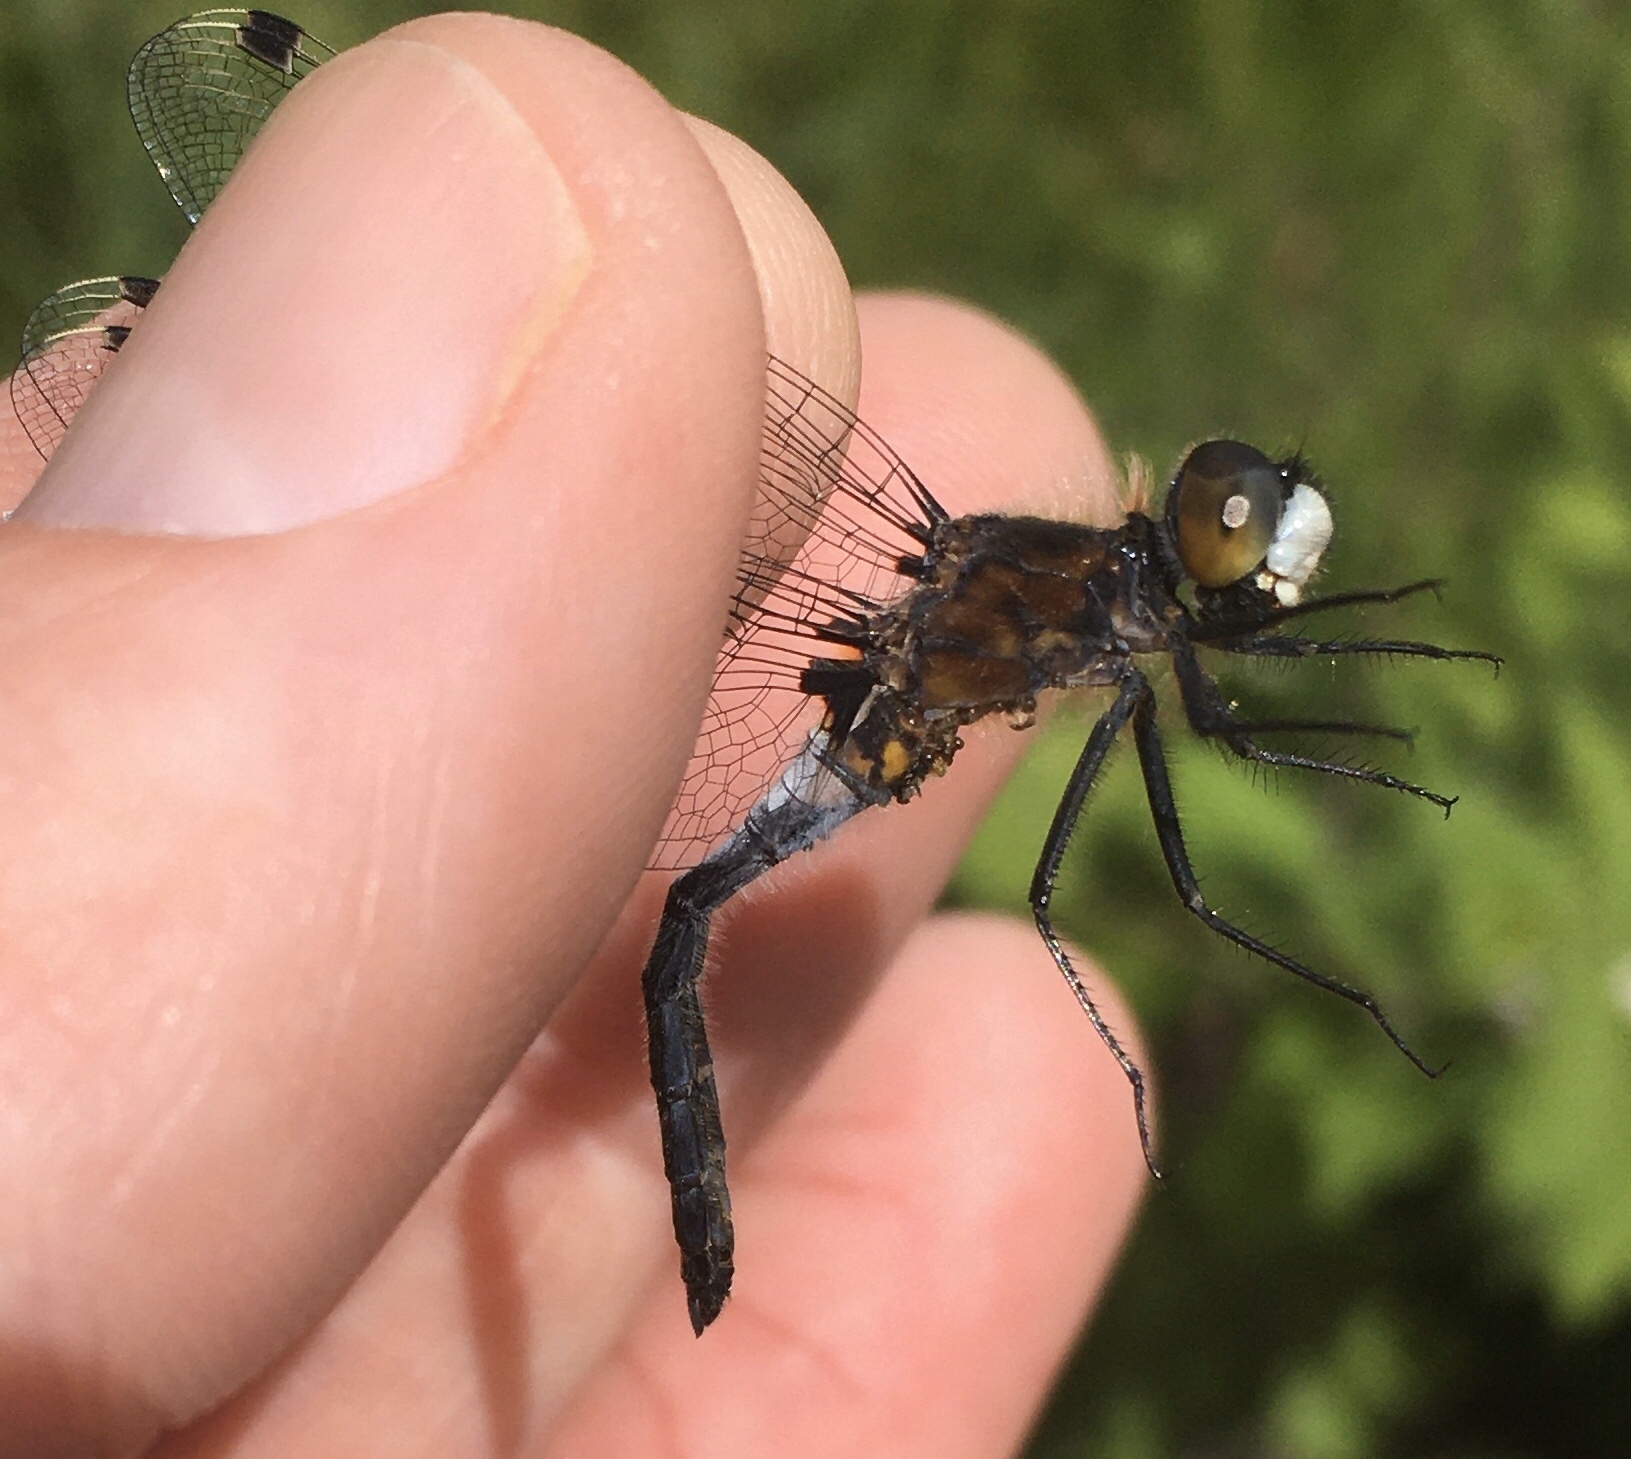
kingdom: Animalia
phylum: Arthropoda
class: Insecta
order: Odonata
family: Libellulidae
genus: Leucorrhinia
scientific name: Leucorrhinia frigida
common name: Frosted whiteface
